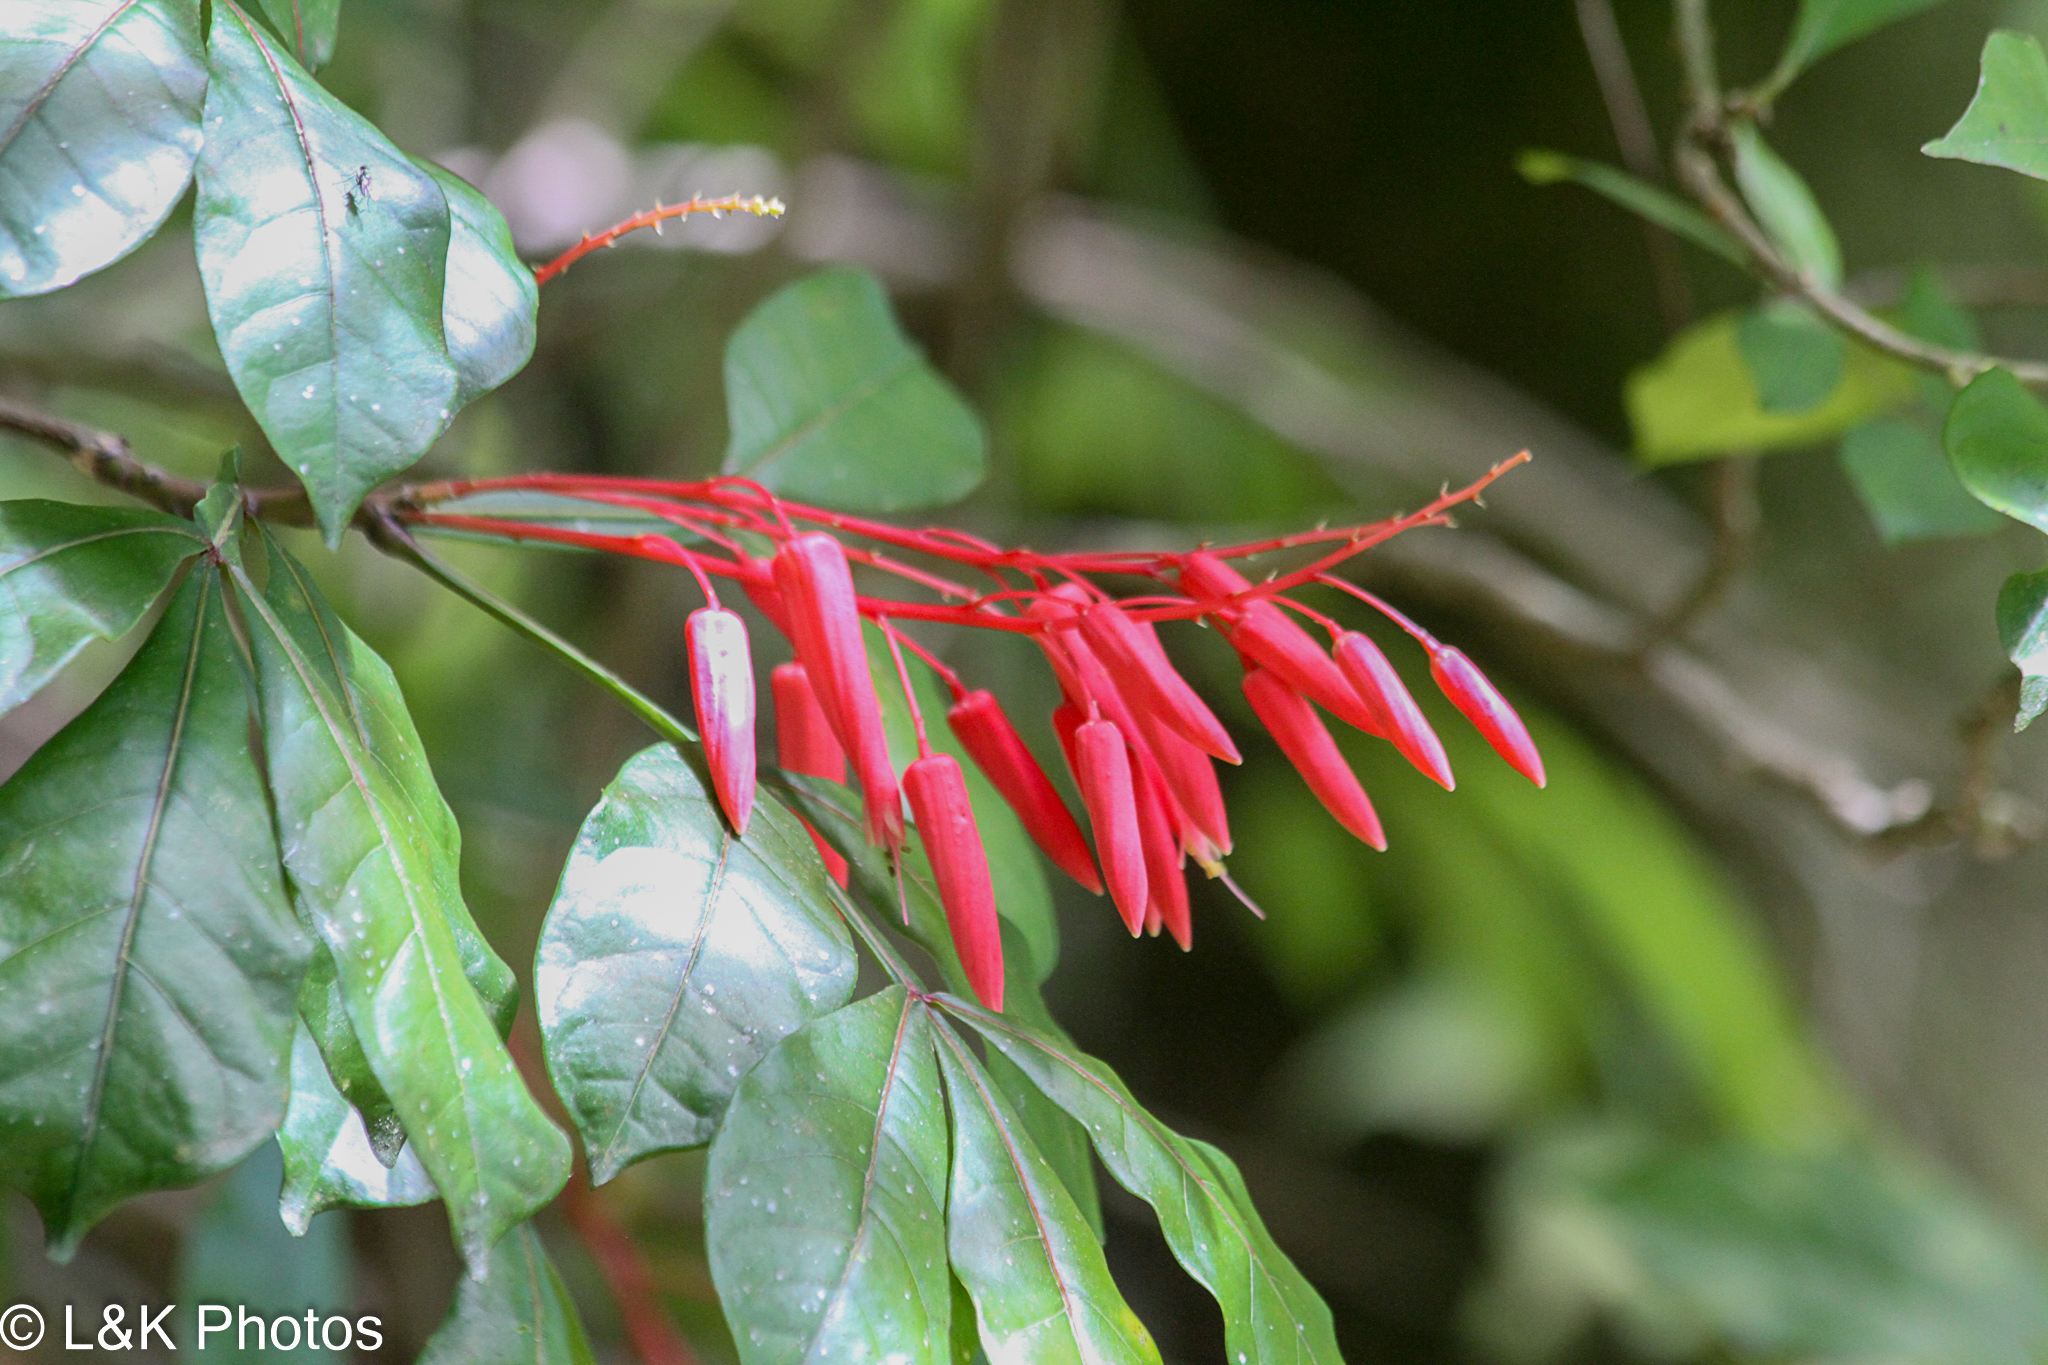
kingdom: Plantae
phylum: Tracheophyta
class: Magnoliopsida
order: Sapindales
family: Simaroubaceae
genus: Quassia
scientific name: Quassia amara
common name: Quassia
